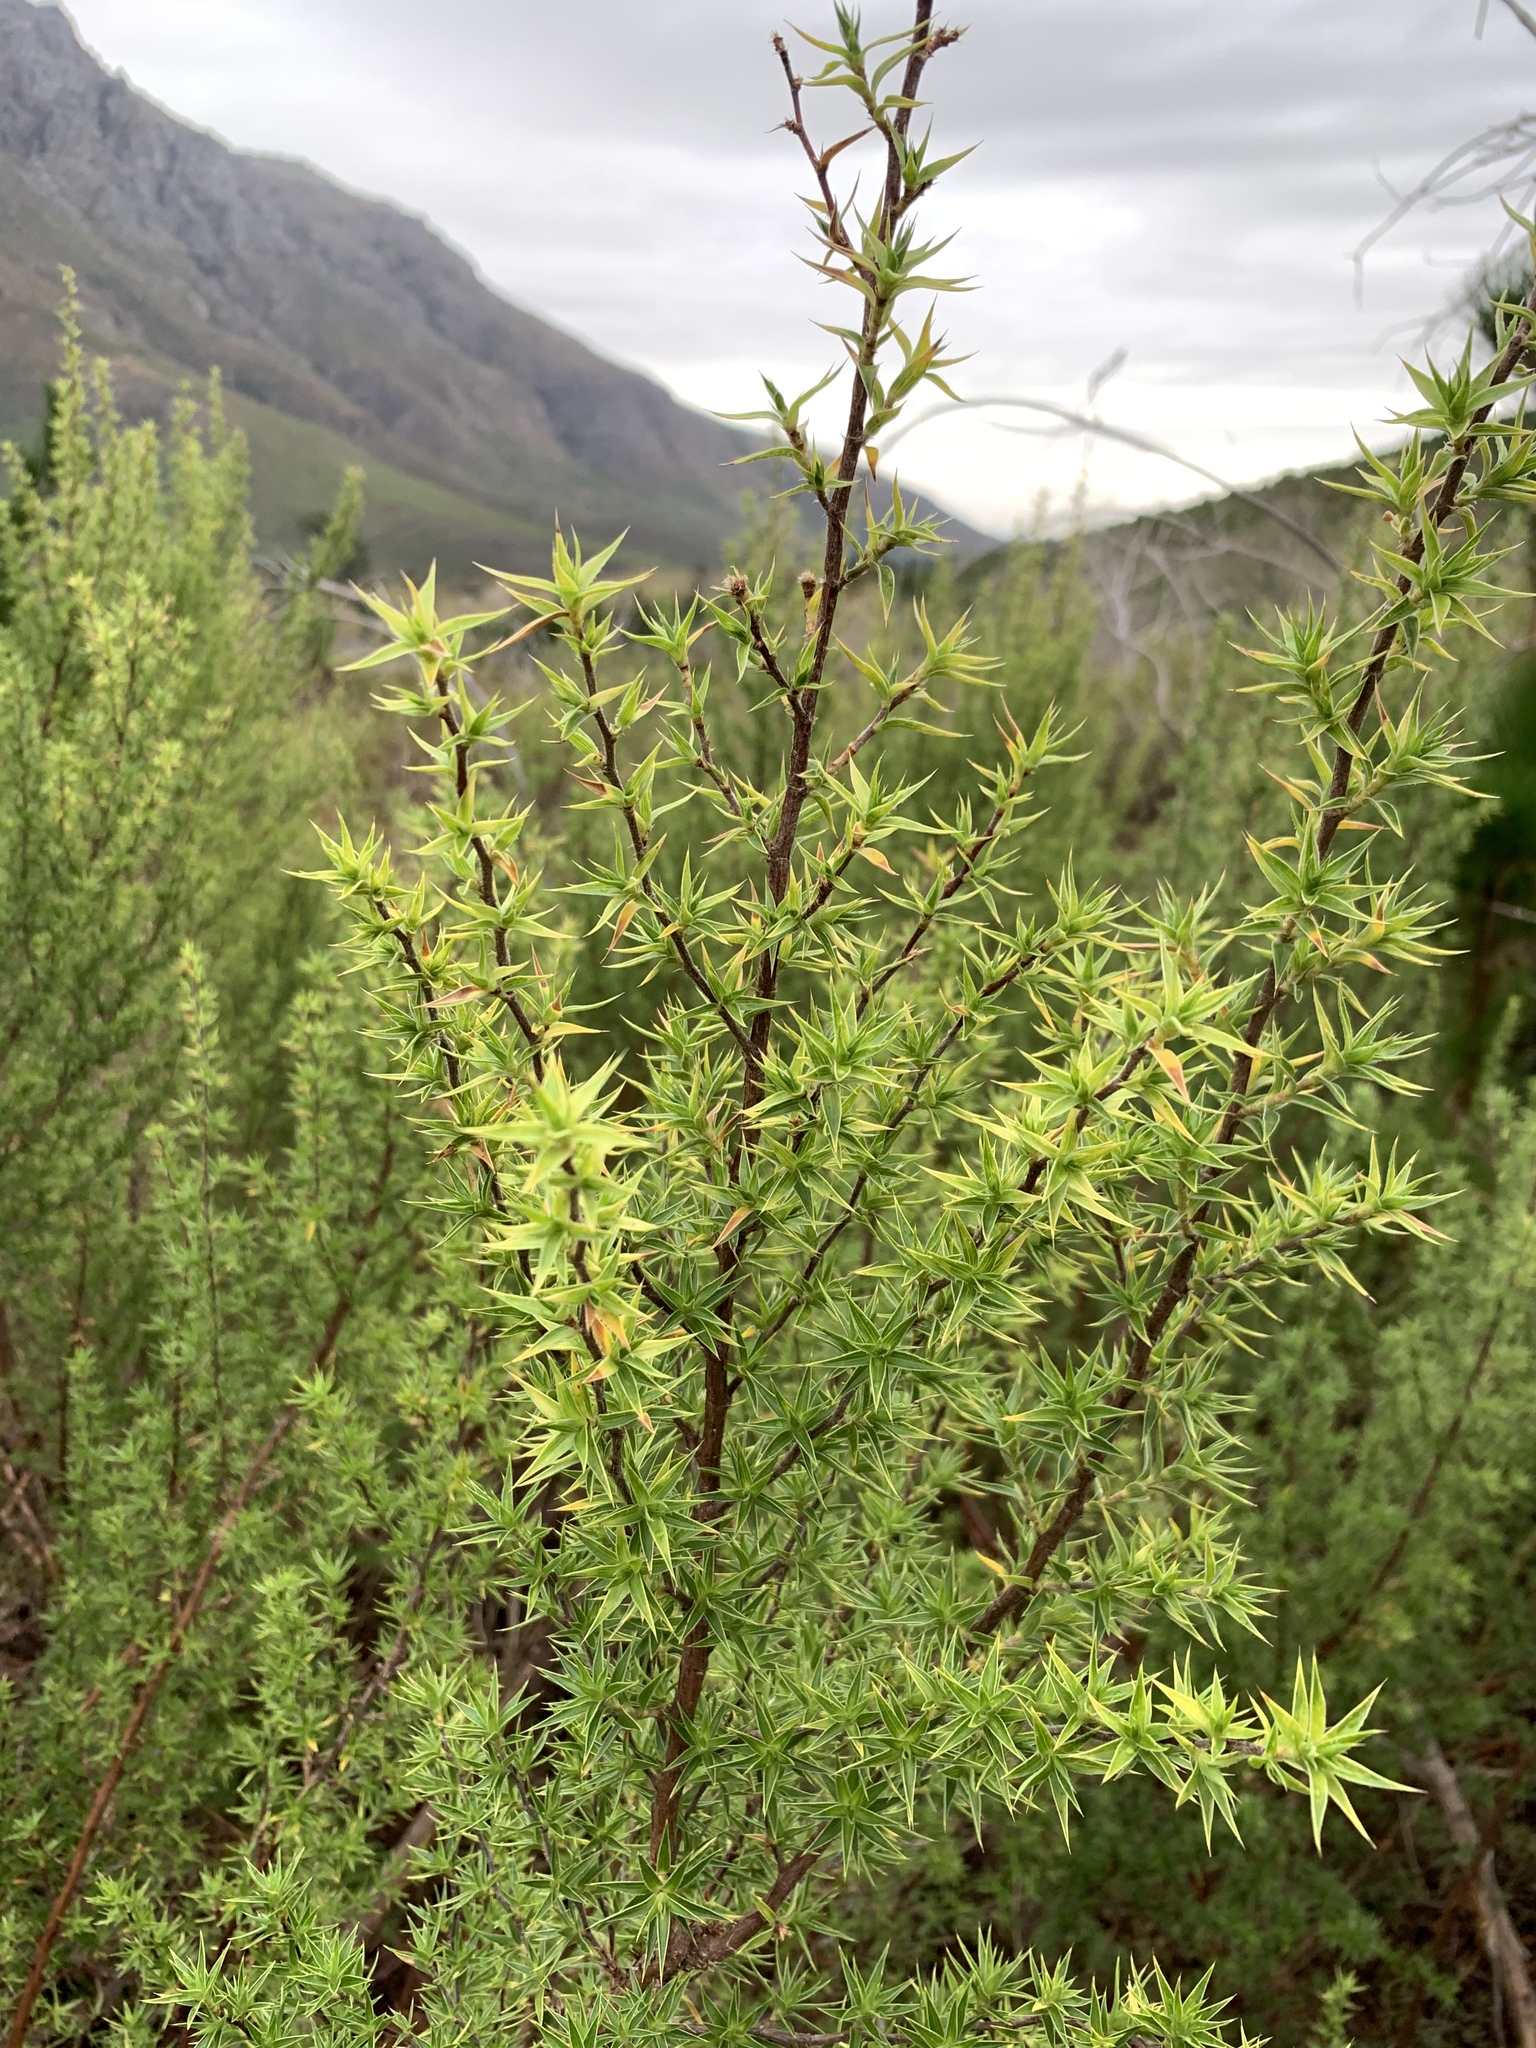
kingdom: Plantae
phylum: Tracheophyta
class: Magnoliopsida
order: Rosales
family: Rosaceae
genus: Cliffortia
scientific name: Cliffortia ruscifolia
